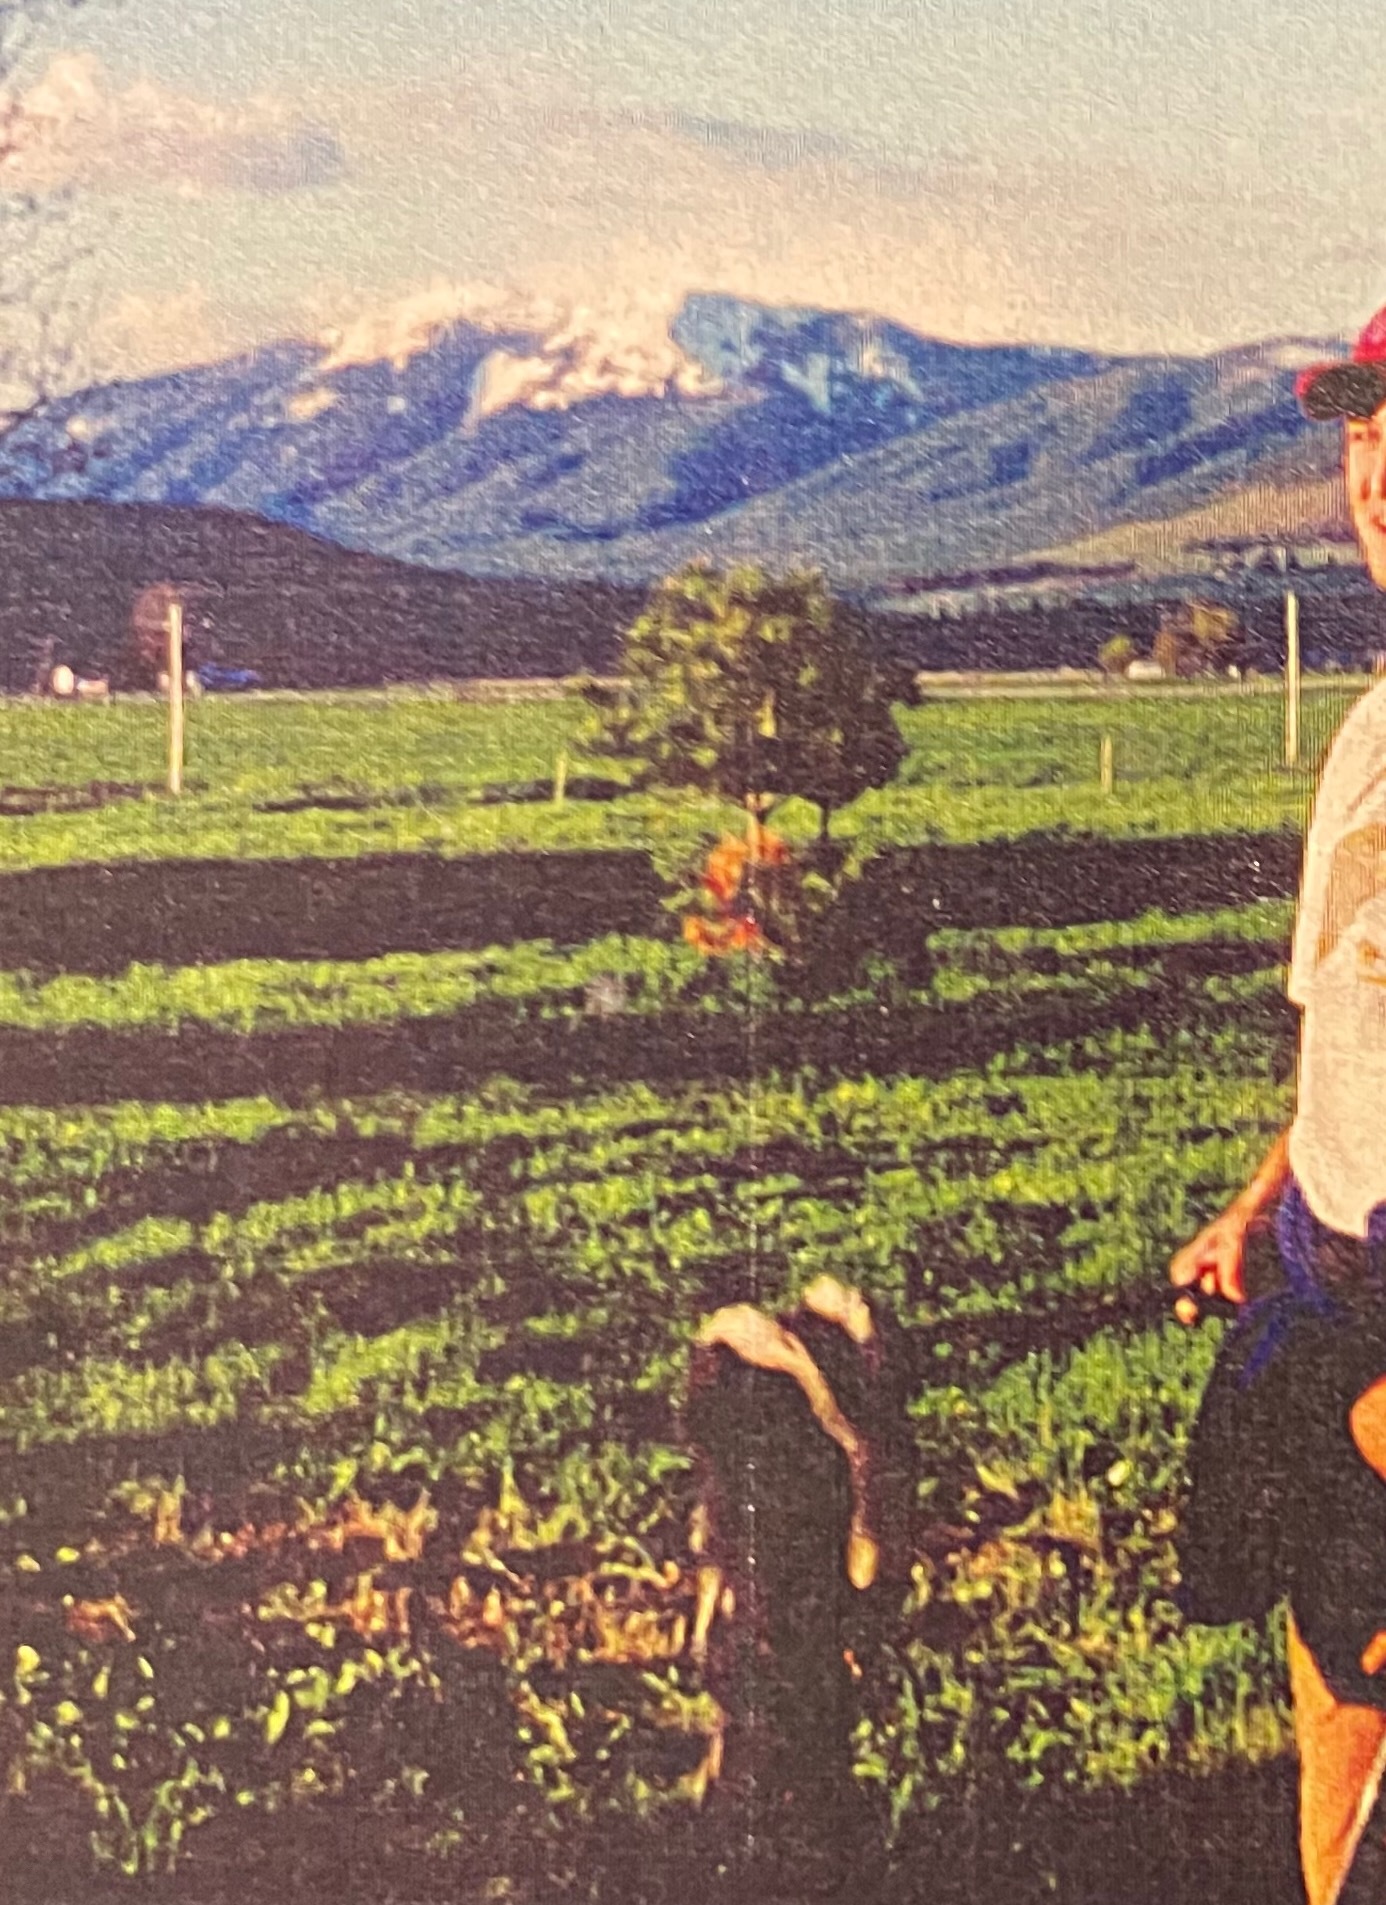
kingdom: Animalia
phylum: Chordata
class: Mammalia
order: Carnivora
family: Mephitidae
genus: Mephitis
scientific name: Mephitis mephitis
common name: Striped skunk
